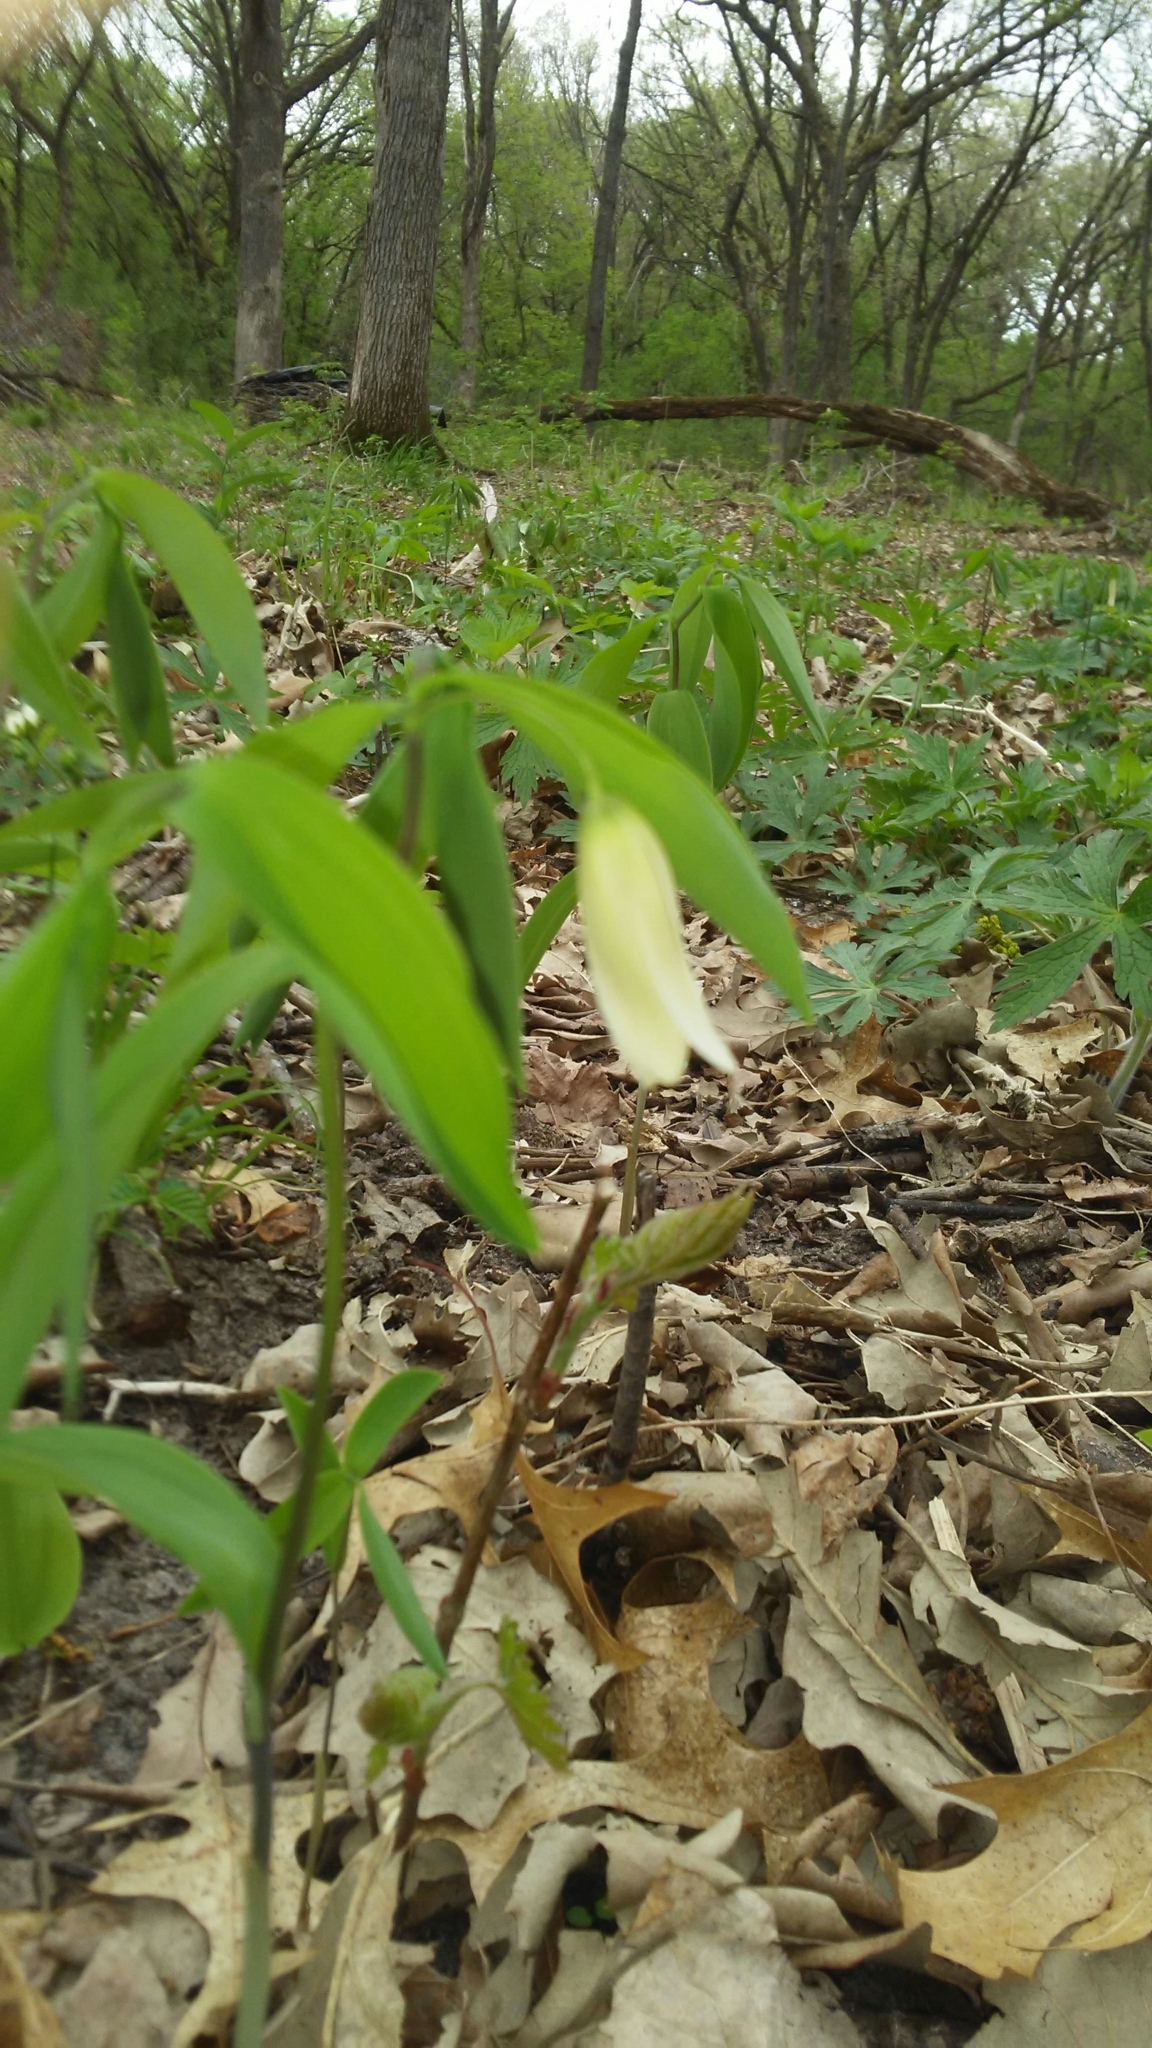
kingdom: Plantae
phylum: Tracheophyta
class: Liliopsida
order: Liliales
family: Colchicaceae
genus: Uvularia
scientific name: Uvularia sessilifolia
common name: Straw-lily
